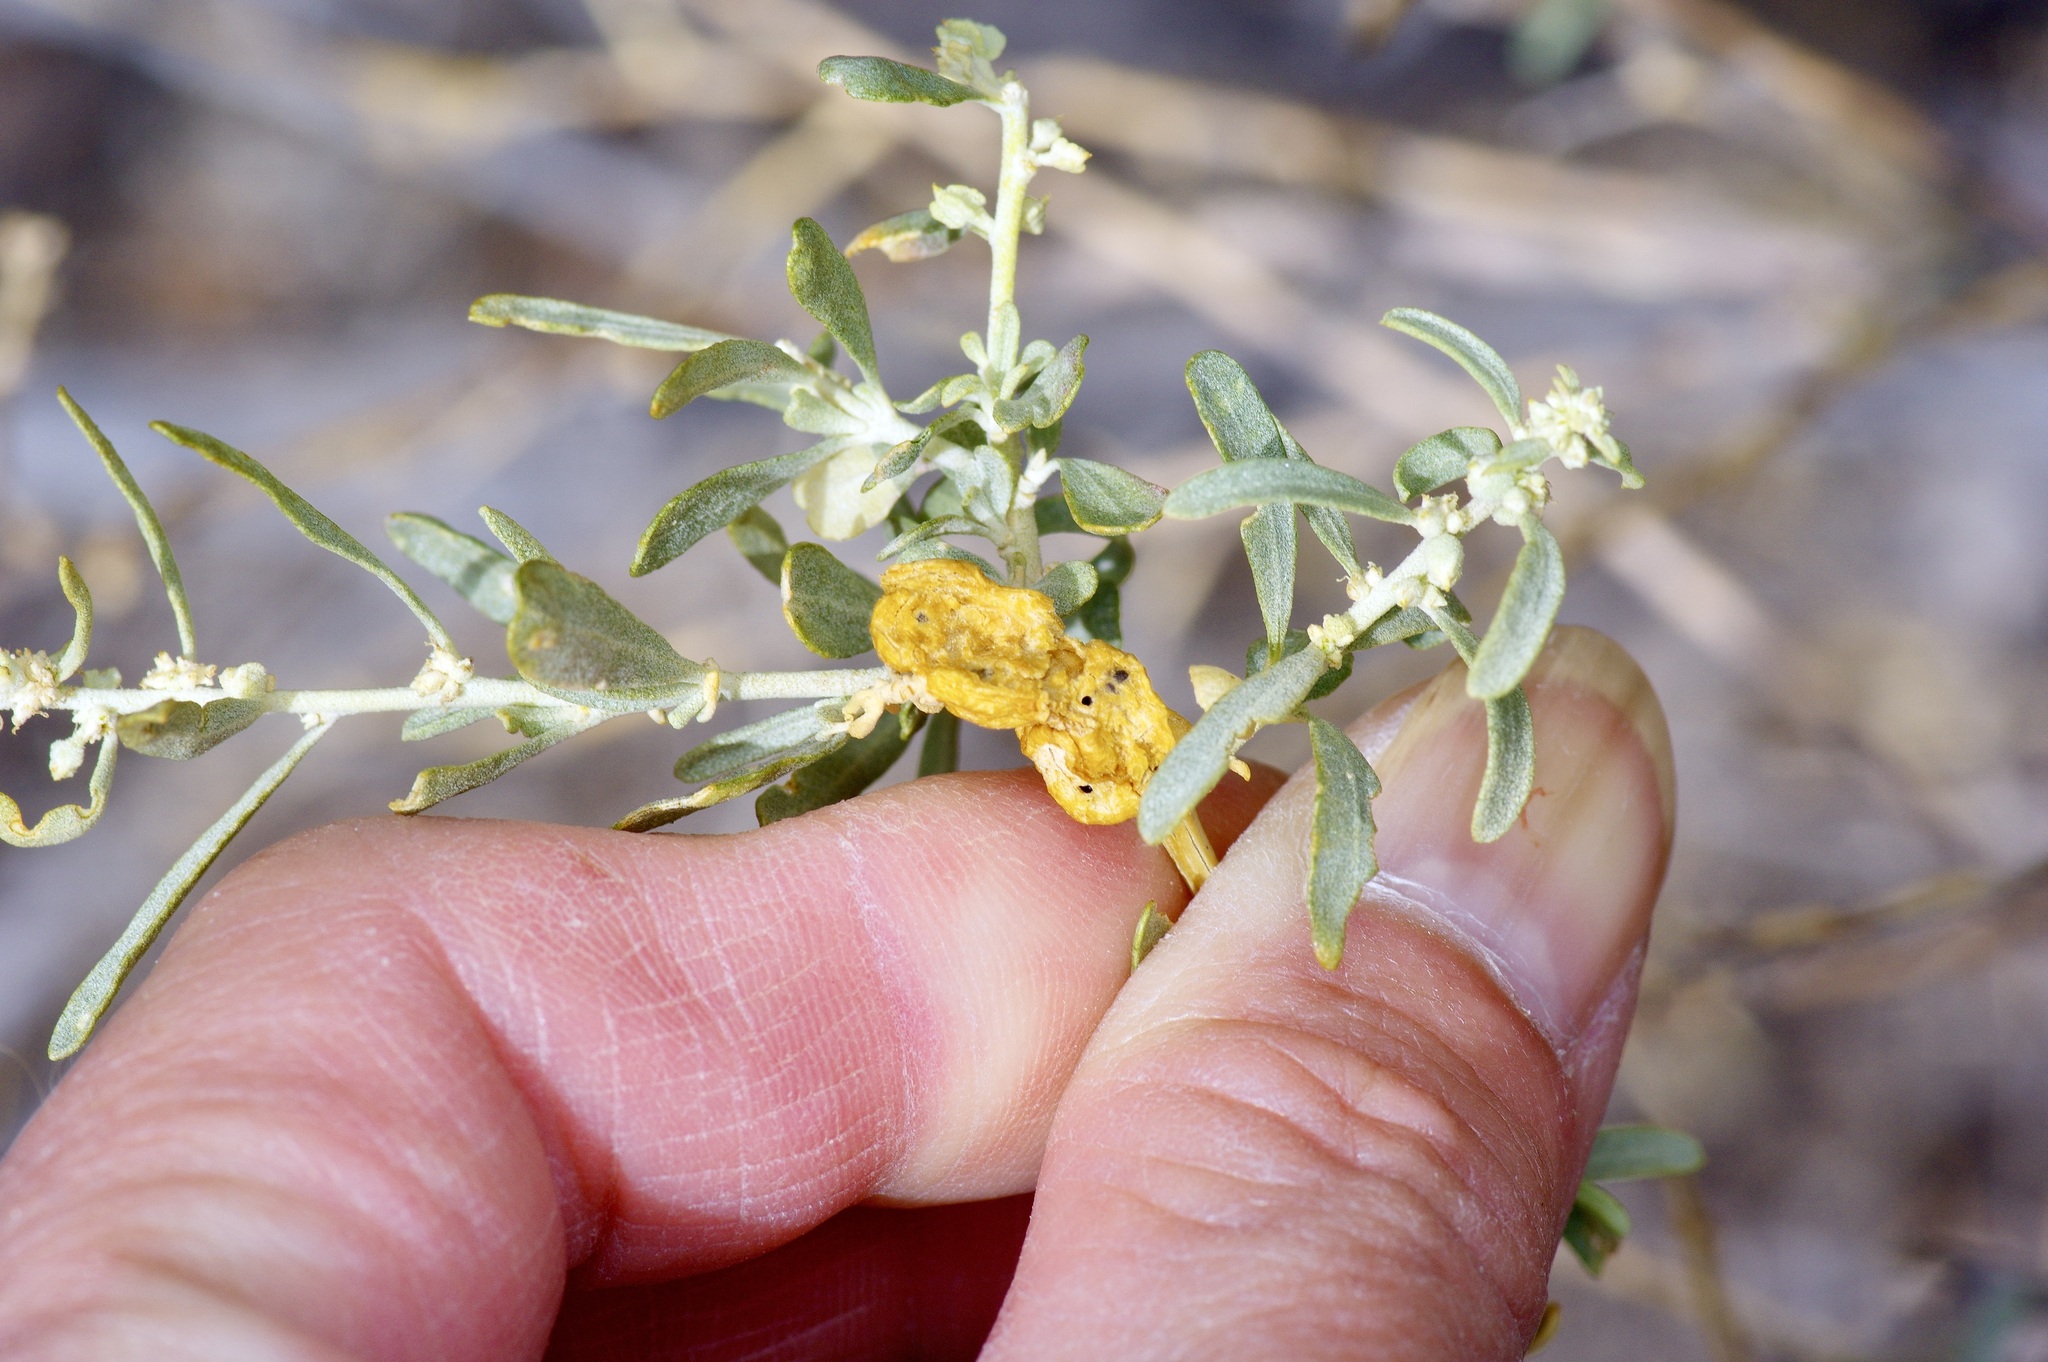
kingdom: Animalia
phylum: Arthropoda
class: Insecta
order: Diptera
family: Cecidomyiidae
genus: Asphondylia
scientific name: Asphondylia atriplicis
